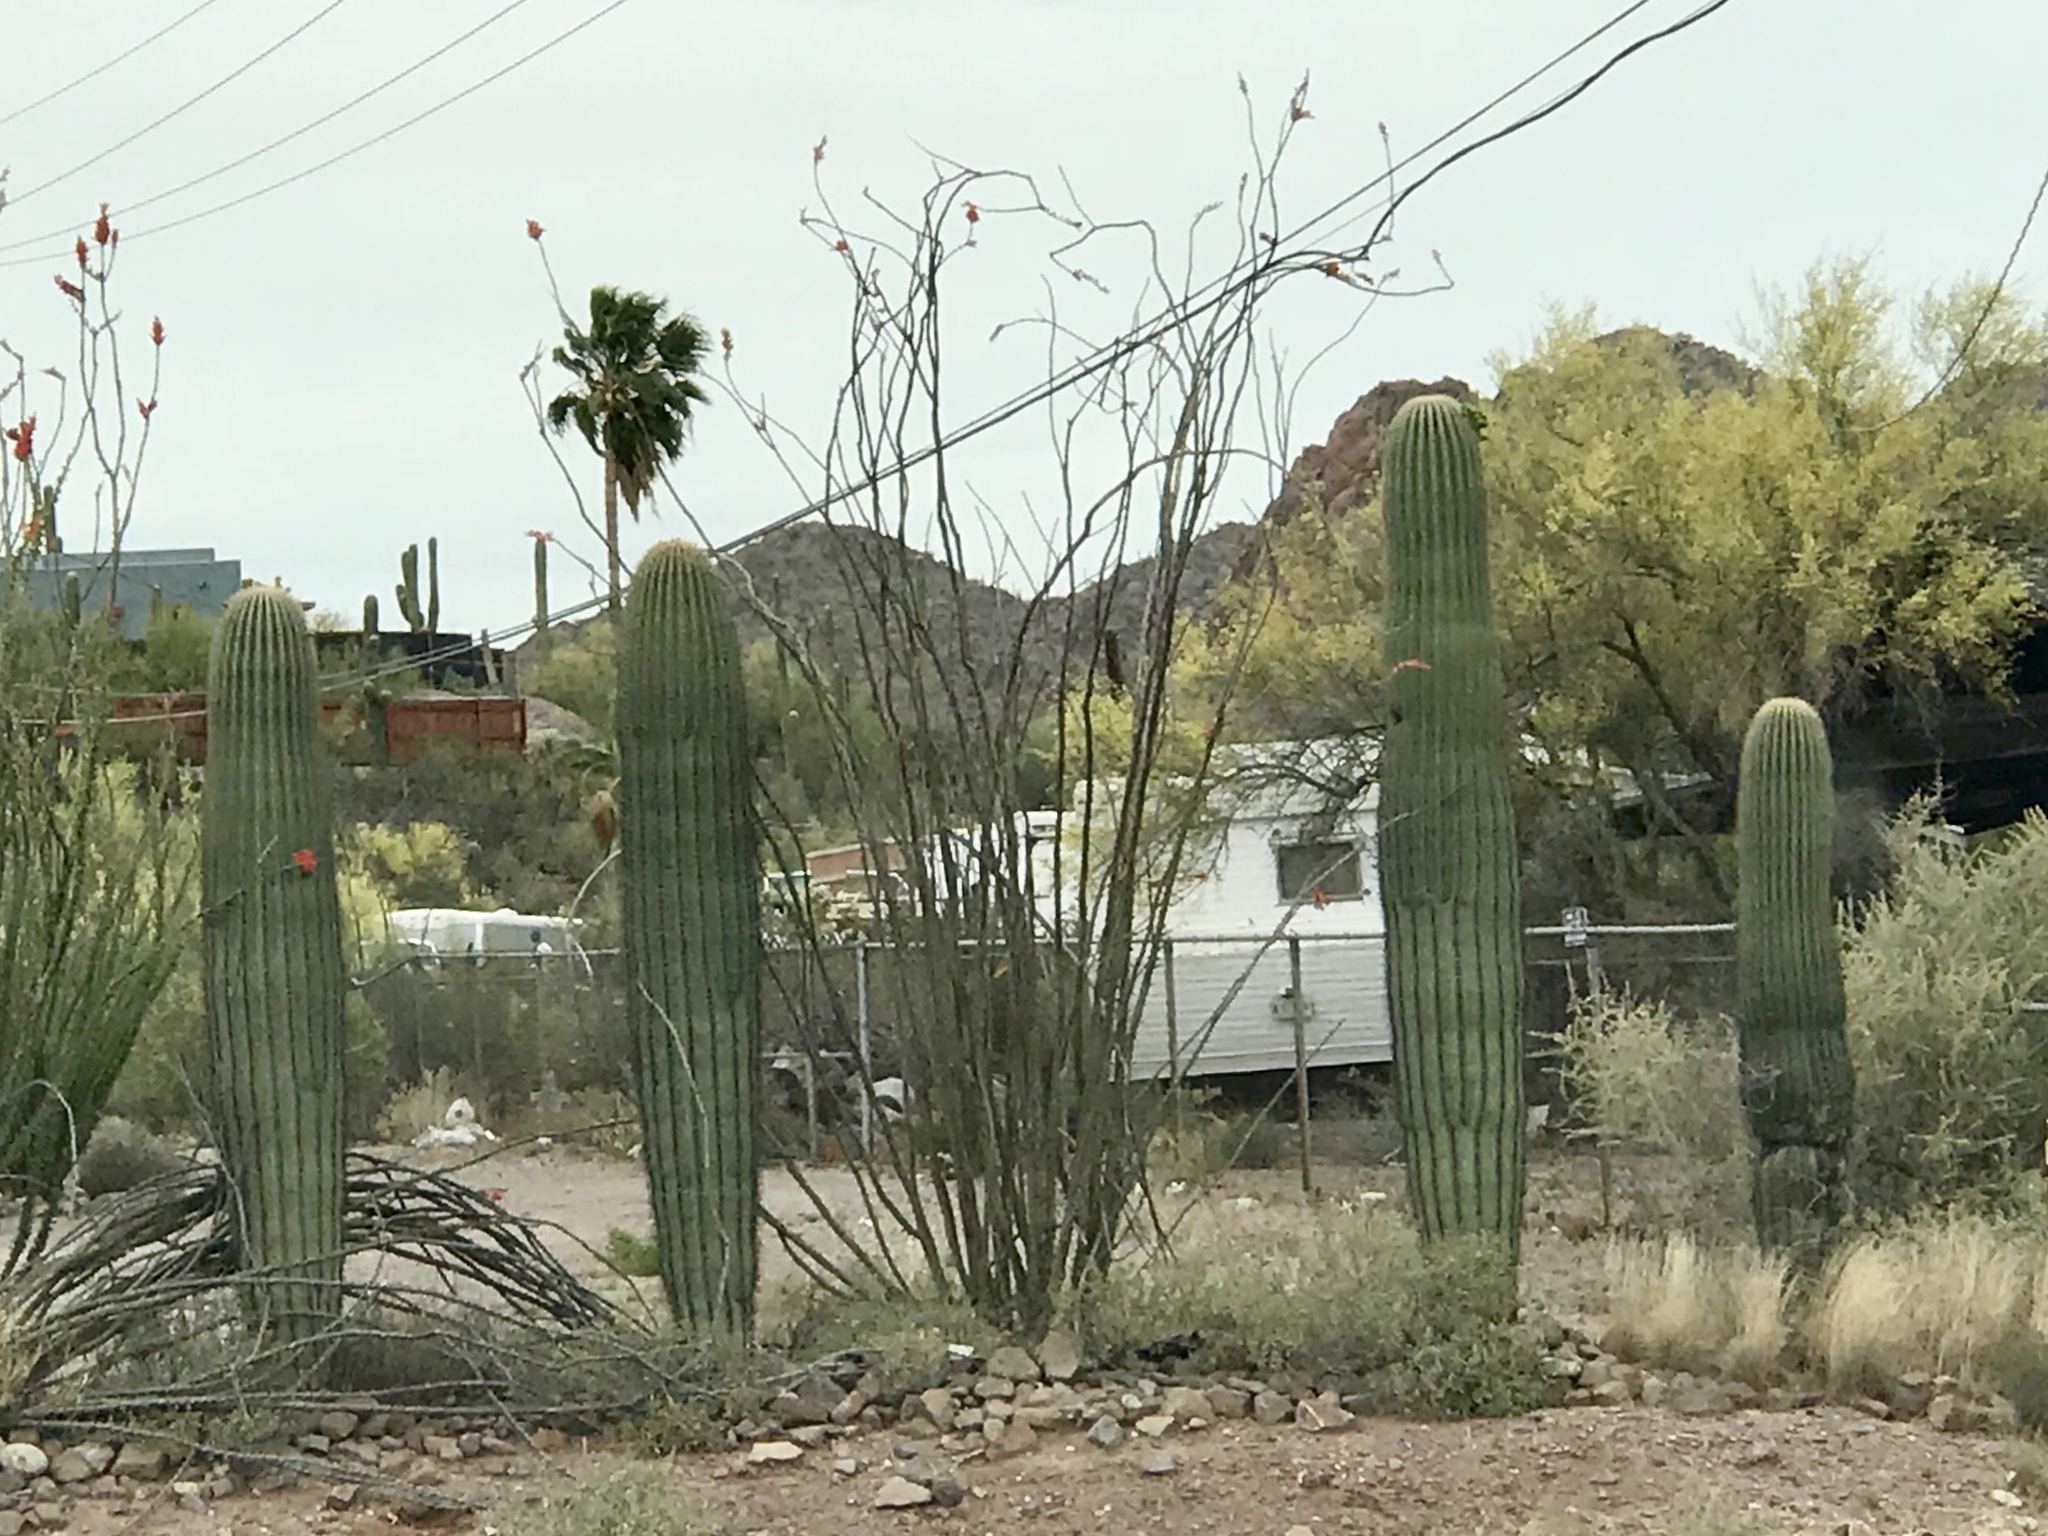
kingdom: Plantae
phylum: Tracheophyta
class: Magnoliopsida
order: Caryophyllales
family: Cactaceae
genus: Carnegiea
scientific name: Carnegiea gigantea
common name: Saguaro
